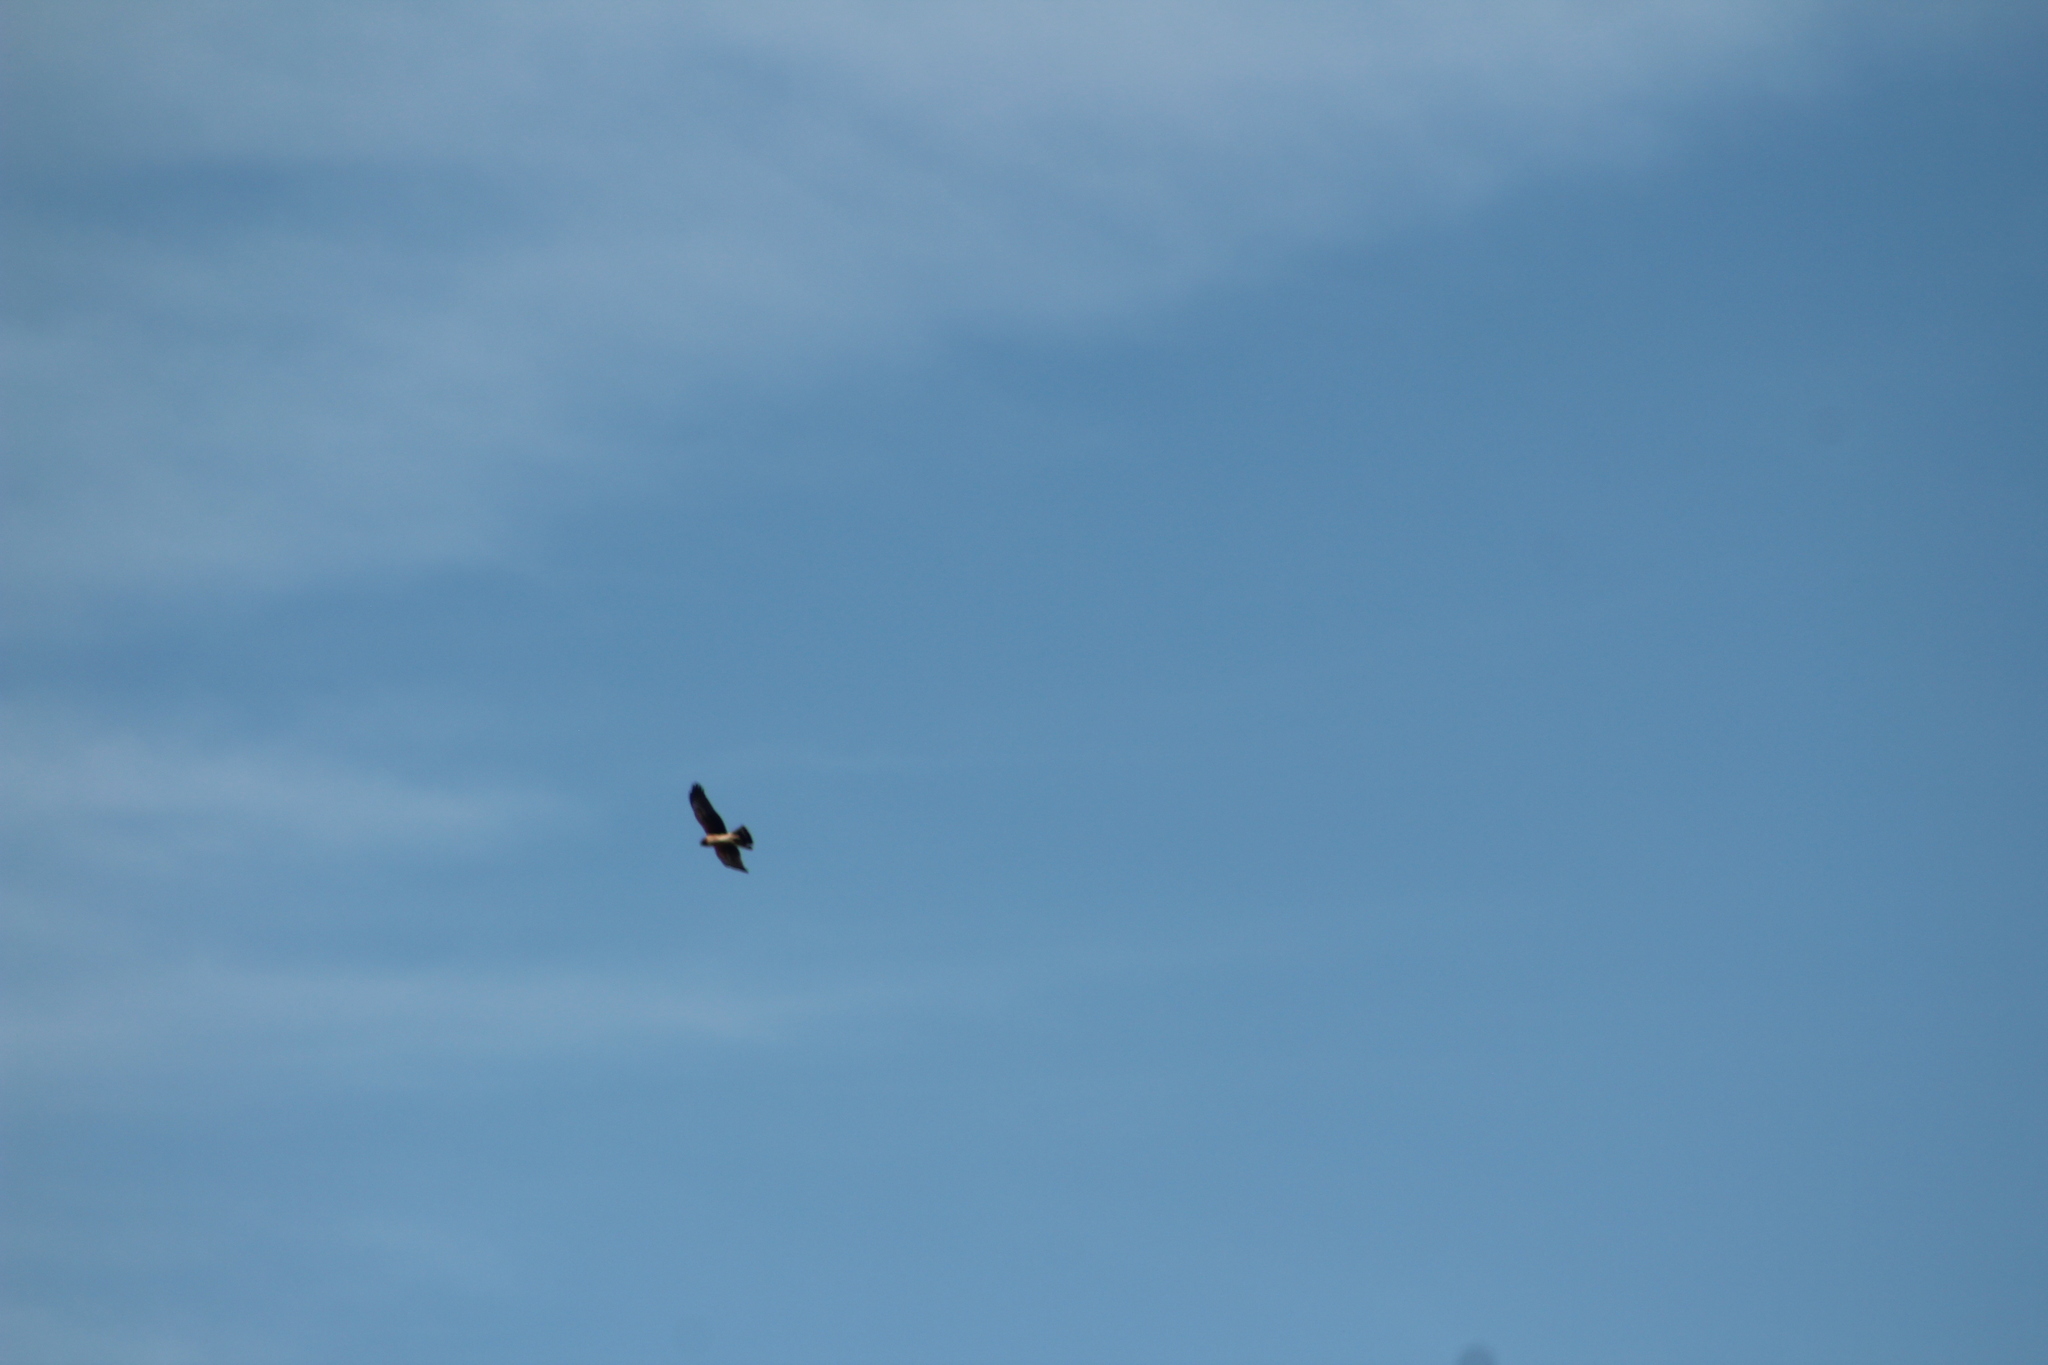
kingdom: Animalia
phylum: Chordata
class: Aves
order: Accipitriformes
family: Accipitridae
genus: Circus
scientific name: Circus cyaneus
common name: Hen harrier
